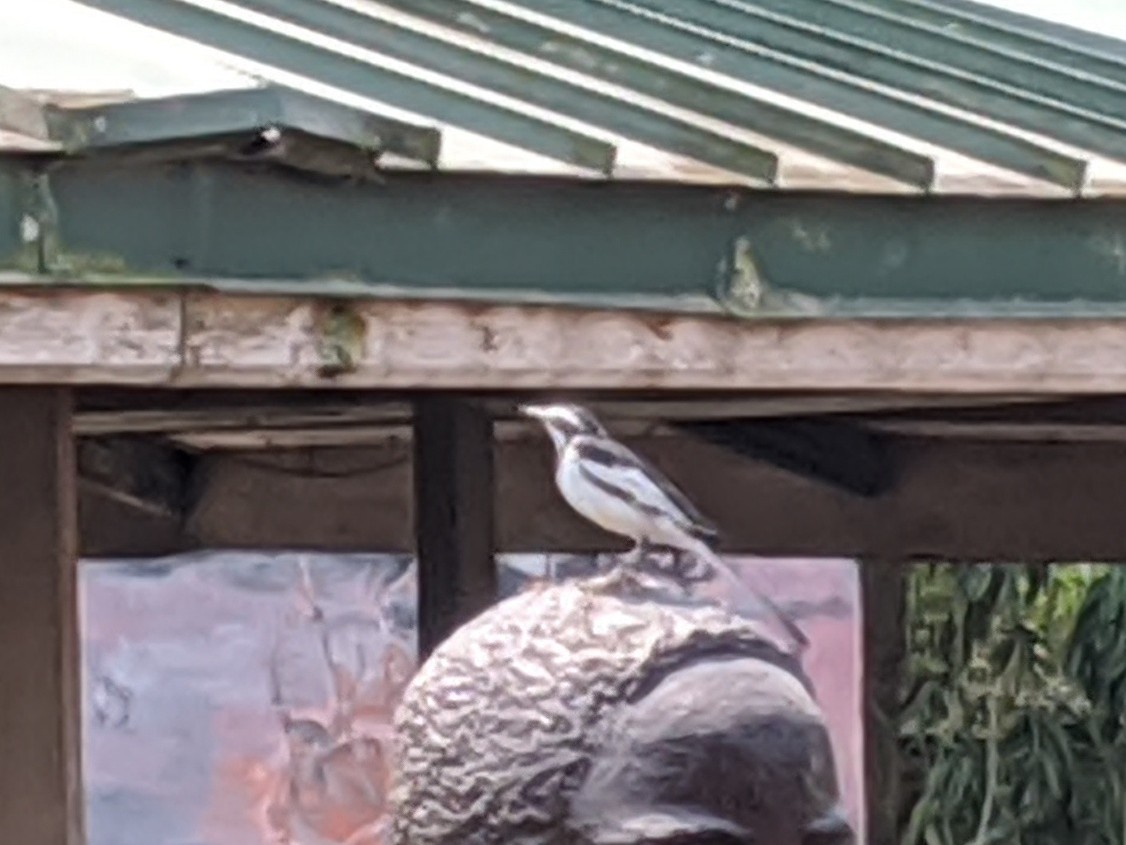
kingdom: Animalia
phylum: Chordata
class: Aves
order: Passeriformes
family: Motacillidae
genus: Motacilla
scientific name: Motacilla aguimp
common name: African pied wagtail
